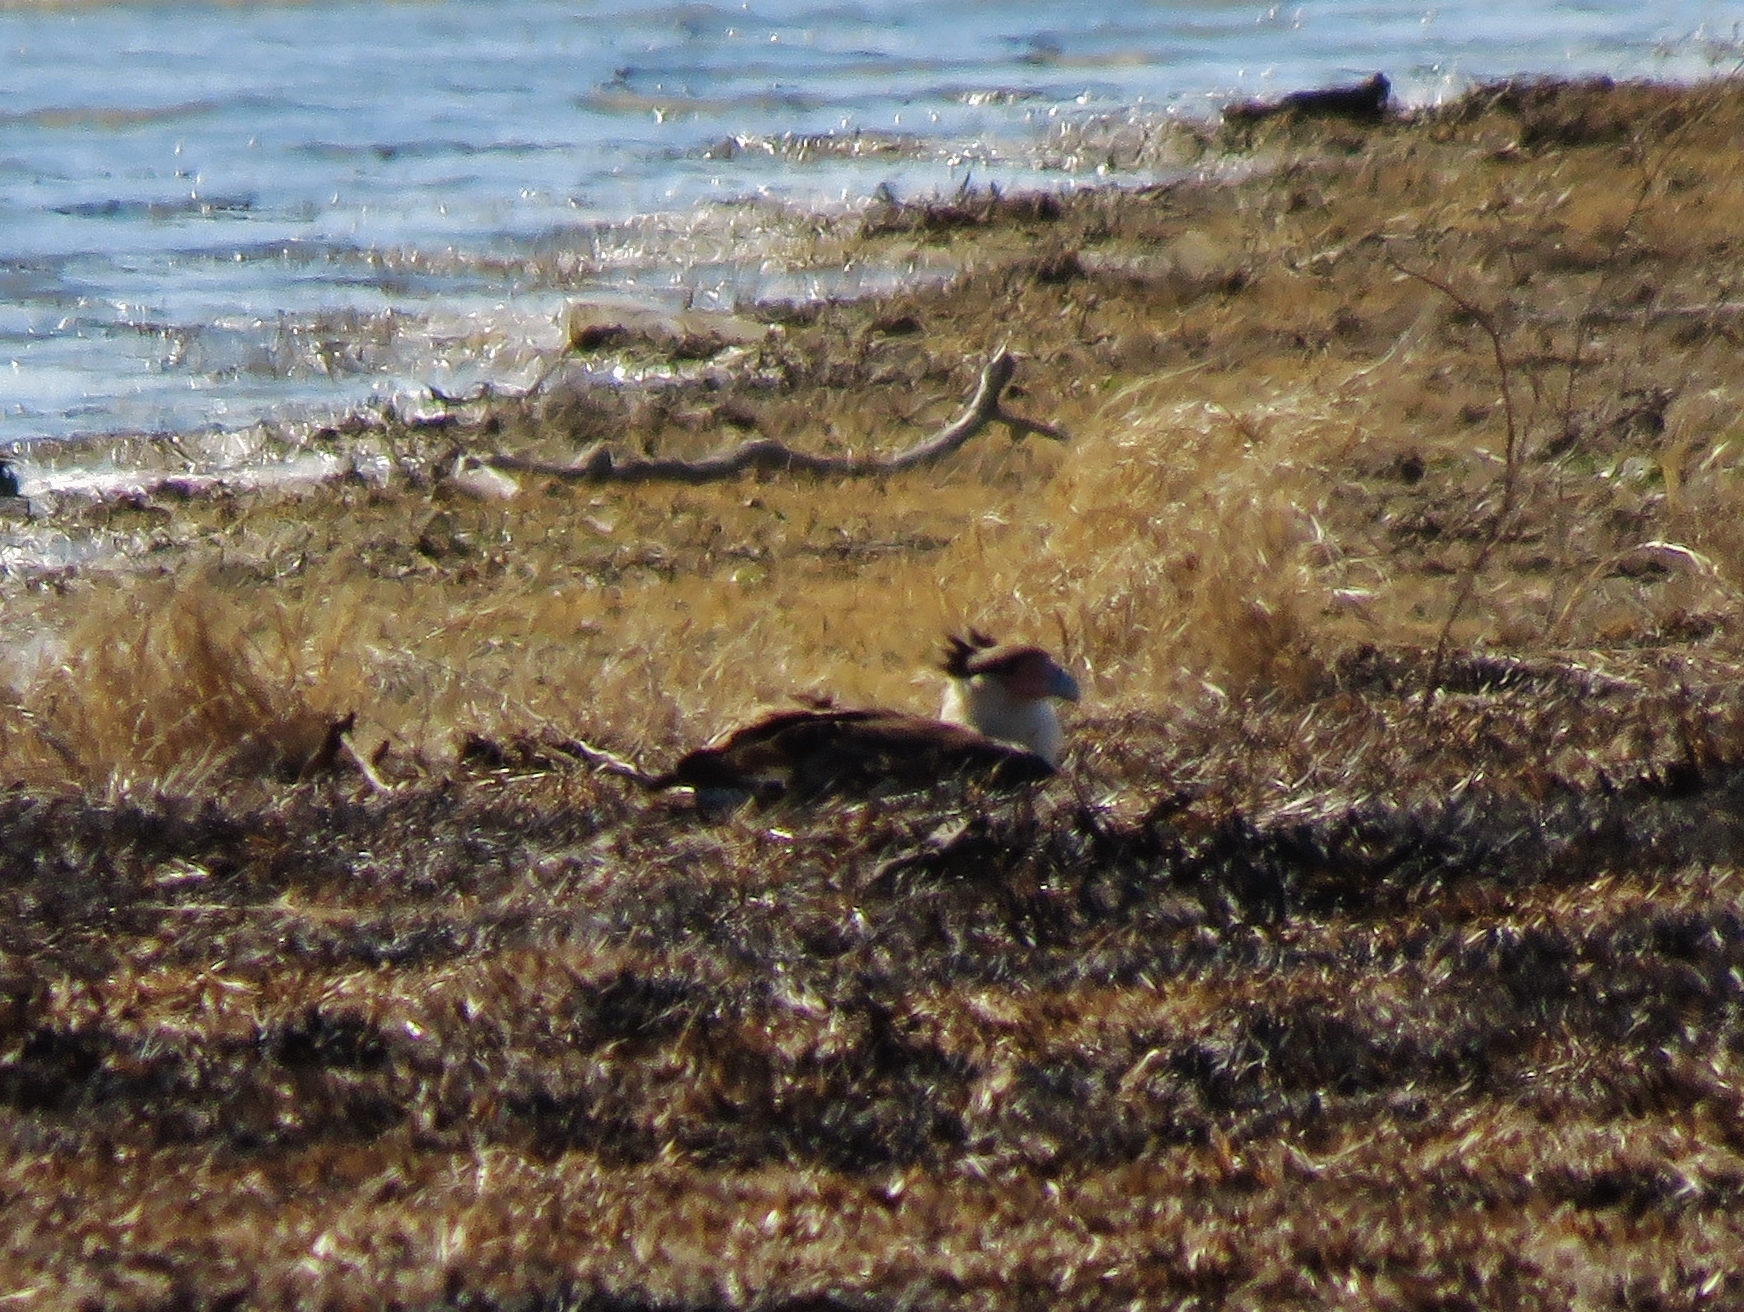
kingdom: Animalia
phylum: Chordata
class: Aves
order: Falconiformes
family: Falconidae
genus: Caracara
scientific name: Caracara plancus
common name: Southern caracara
